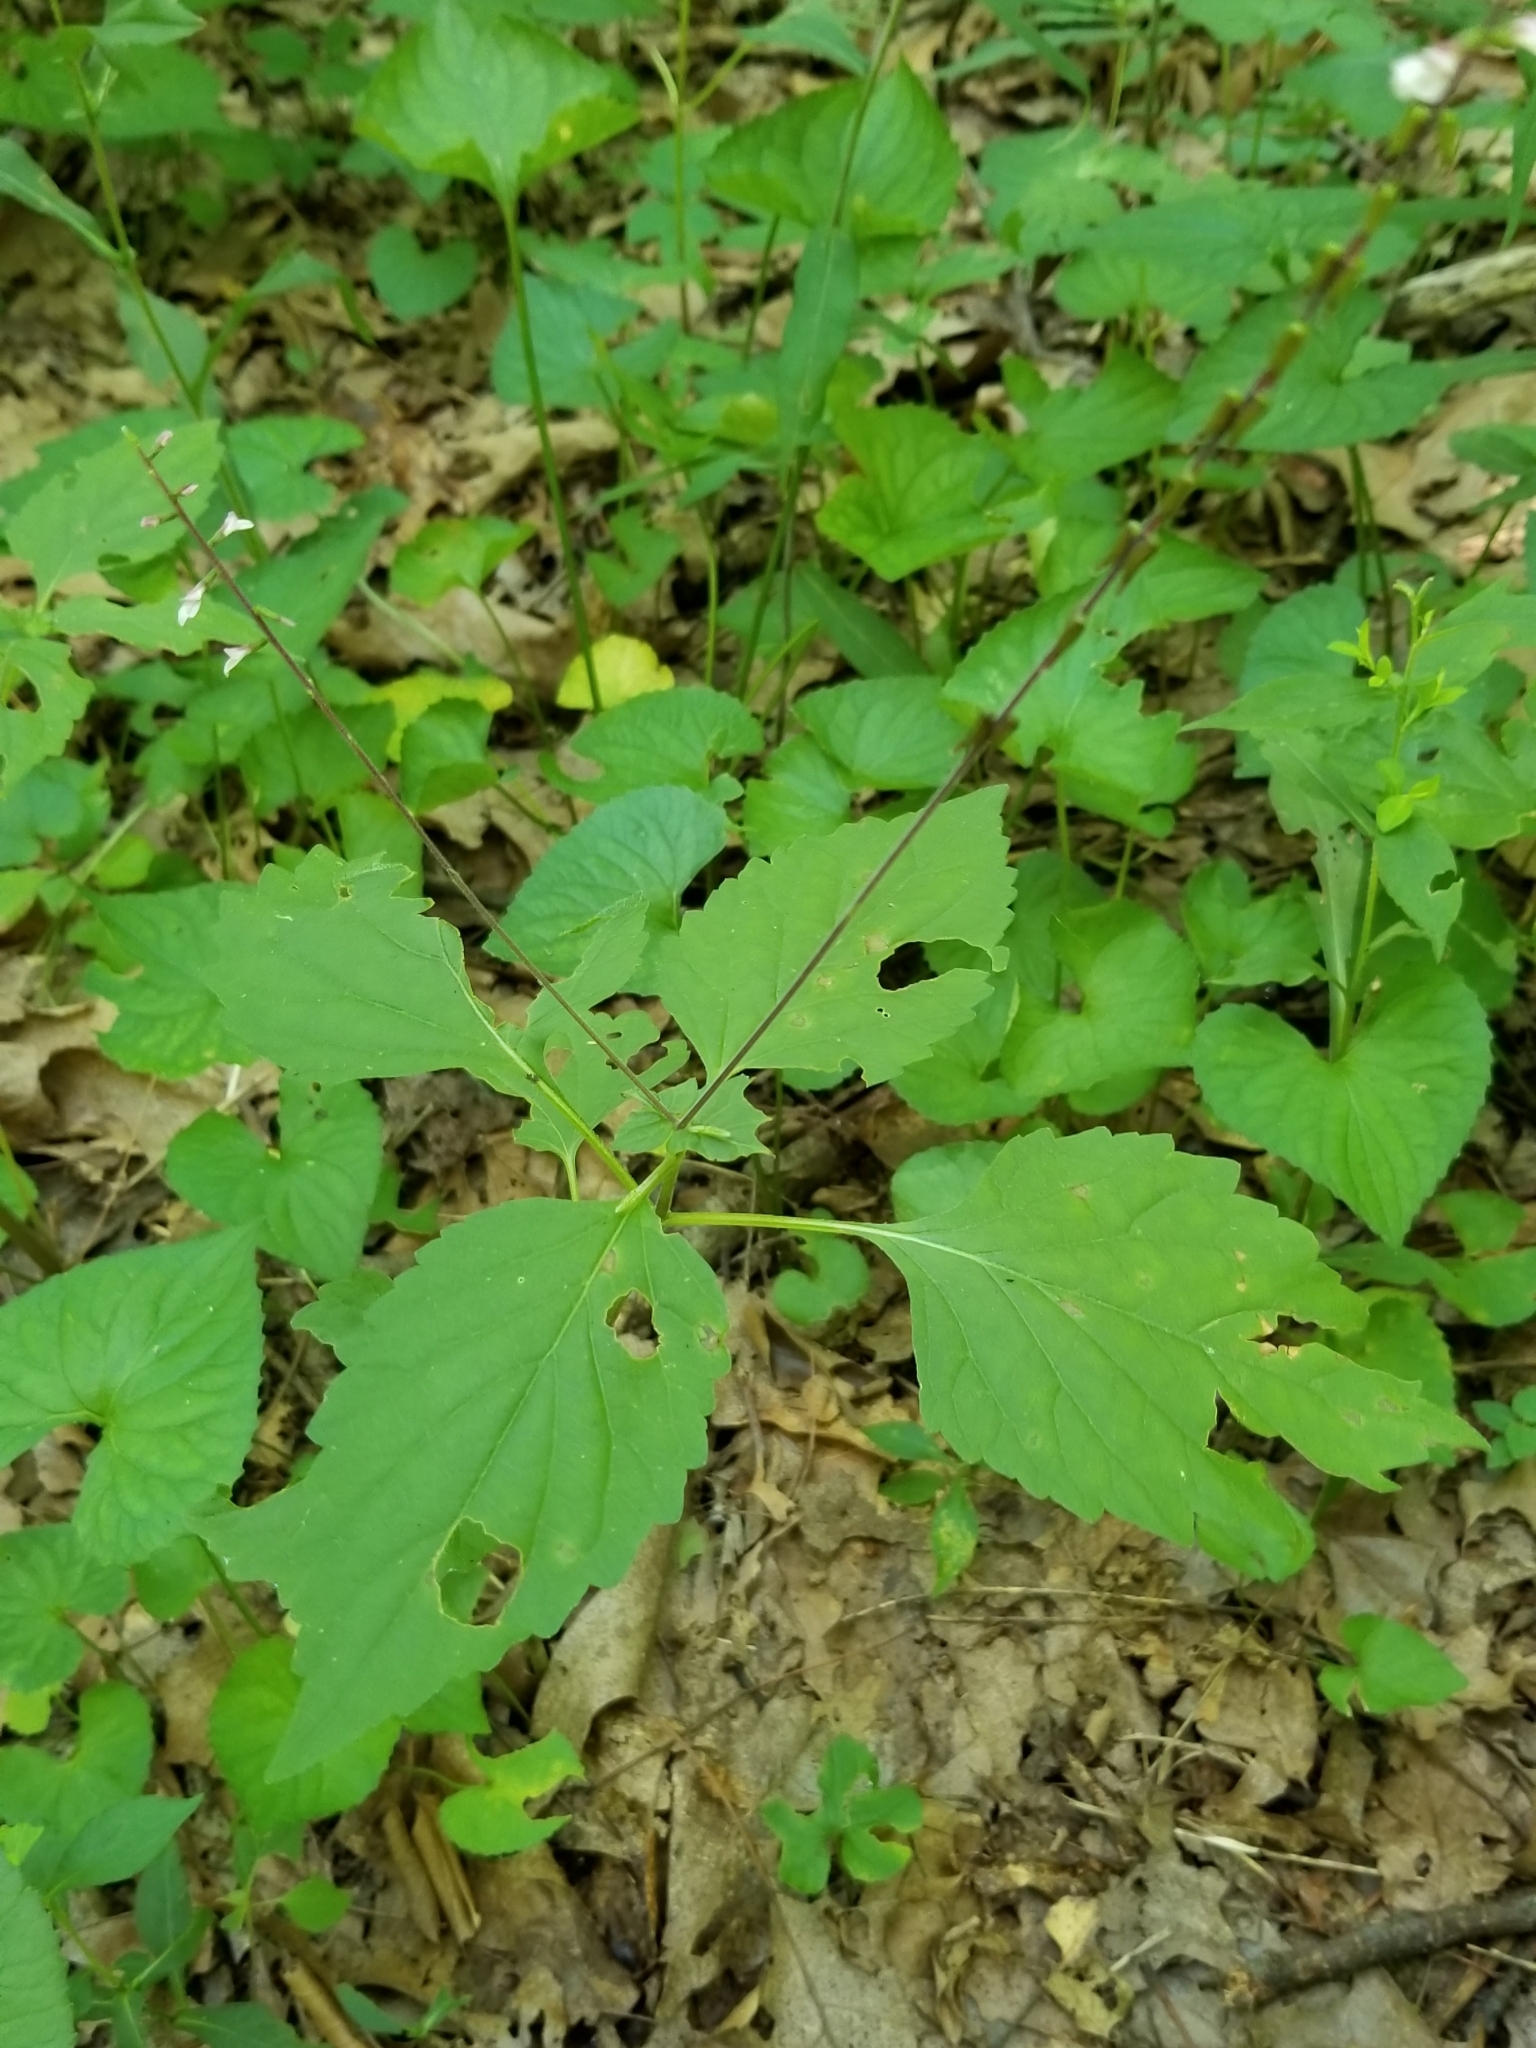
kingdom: Plantae
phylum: Tracheophyta
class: Magnoliopsida
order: Lamiales
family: Phrymaceae
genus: Phryma
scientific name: Phryma leptostachya
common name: American lopseed
